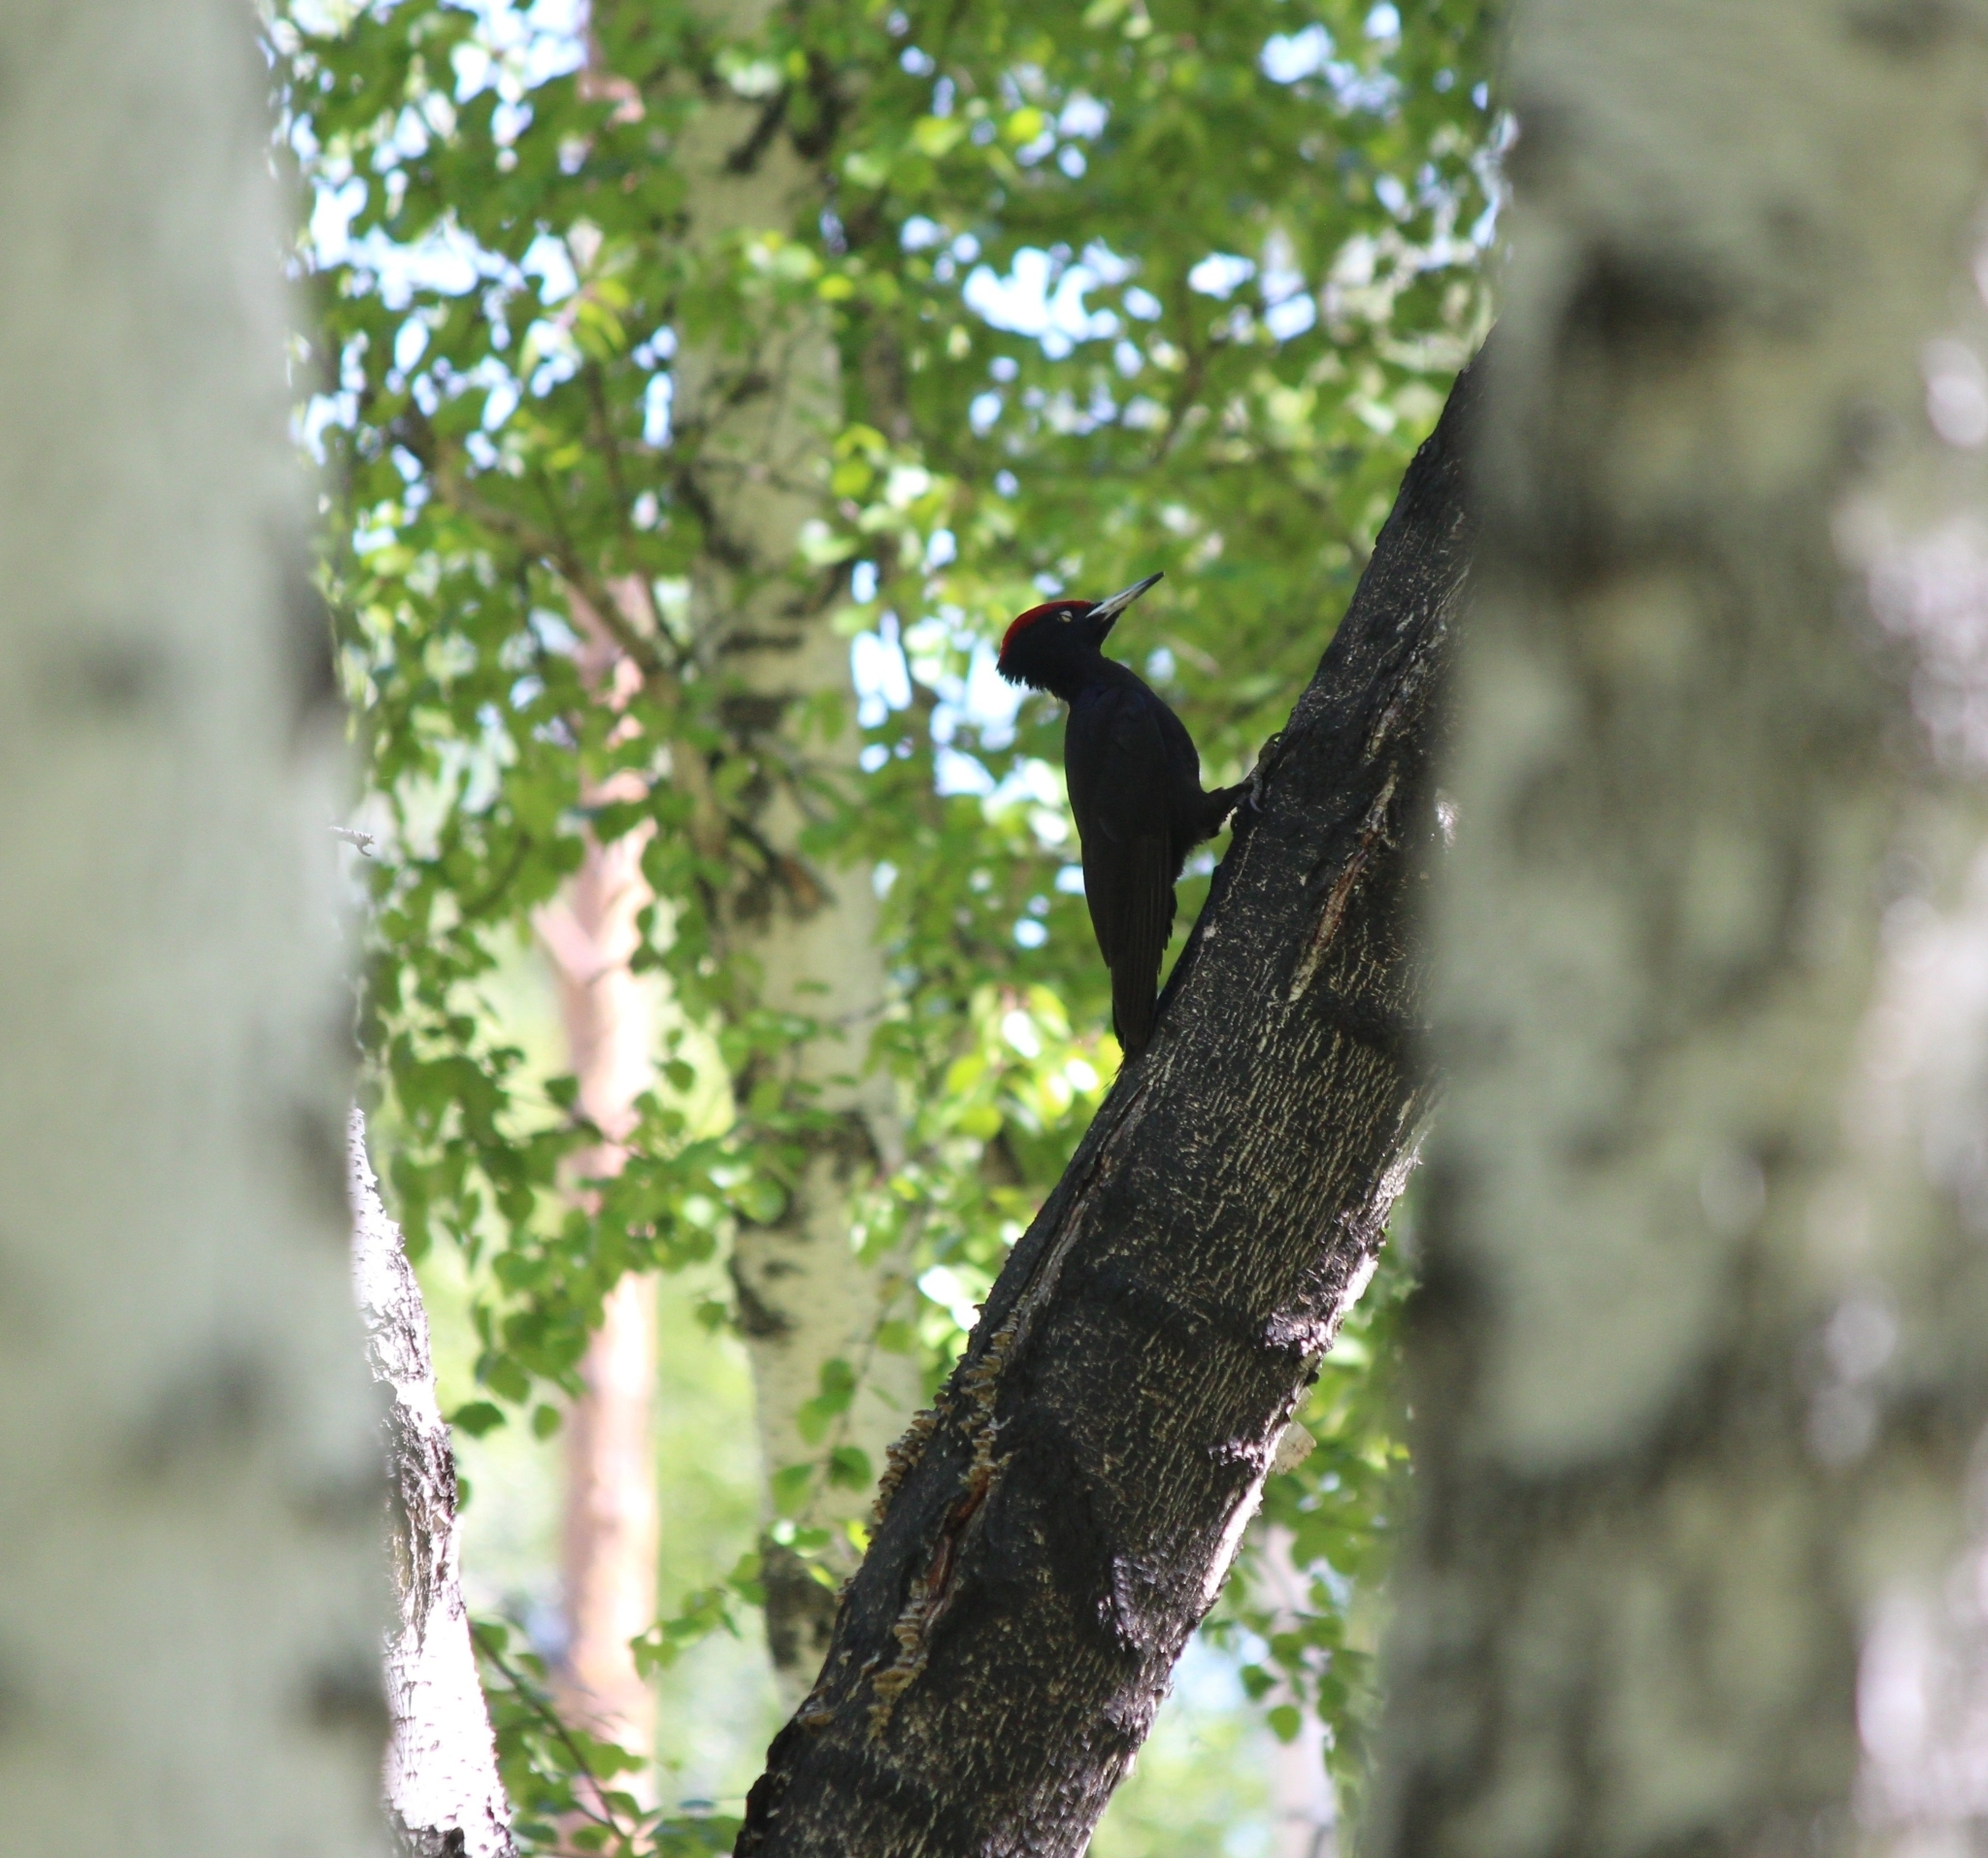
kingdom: Animalia
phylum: Chordata
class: Aves
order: Piciformes
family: Picidae
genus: Dryocopus
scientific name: Dryocopus martius
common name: Black woodpecker
